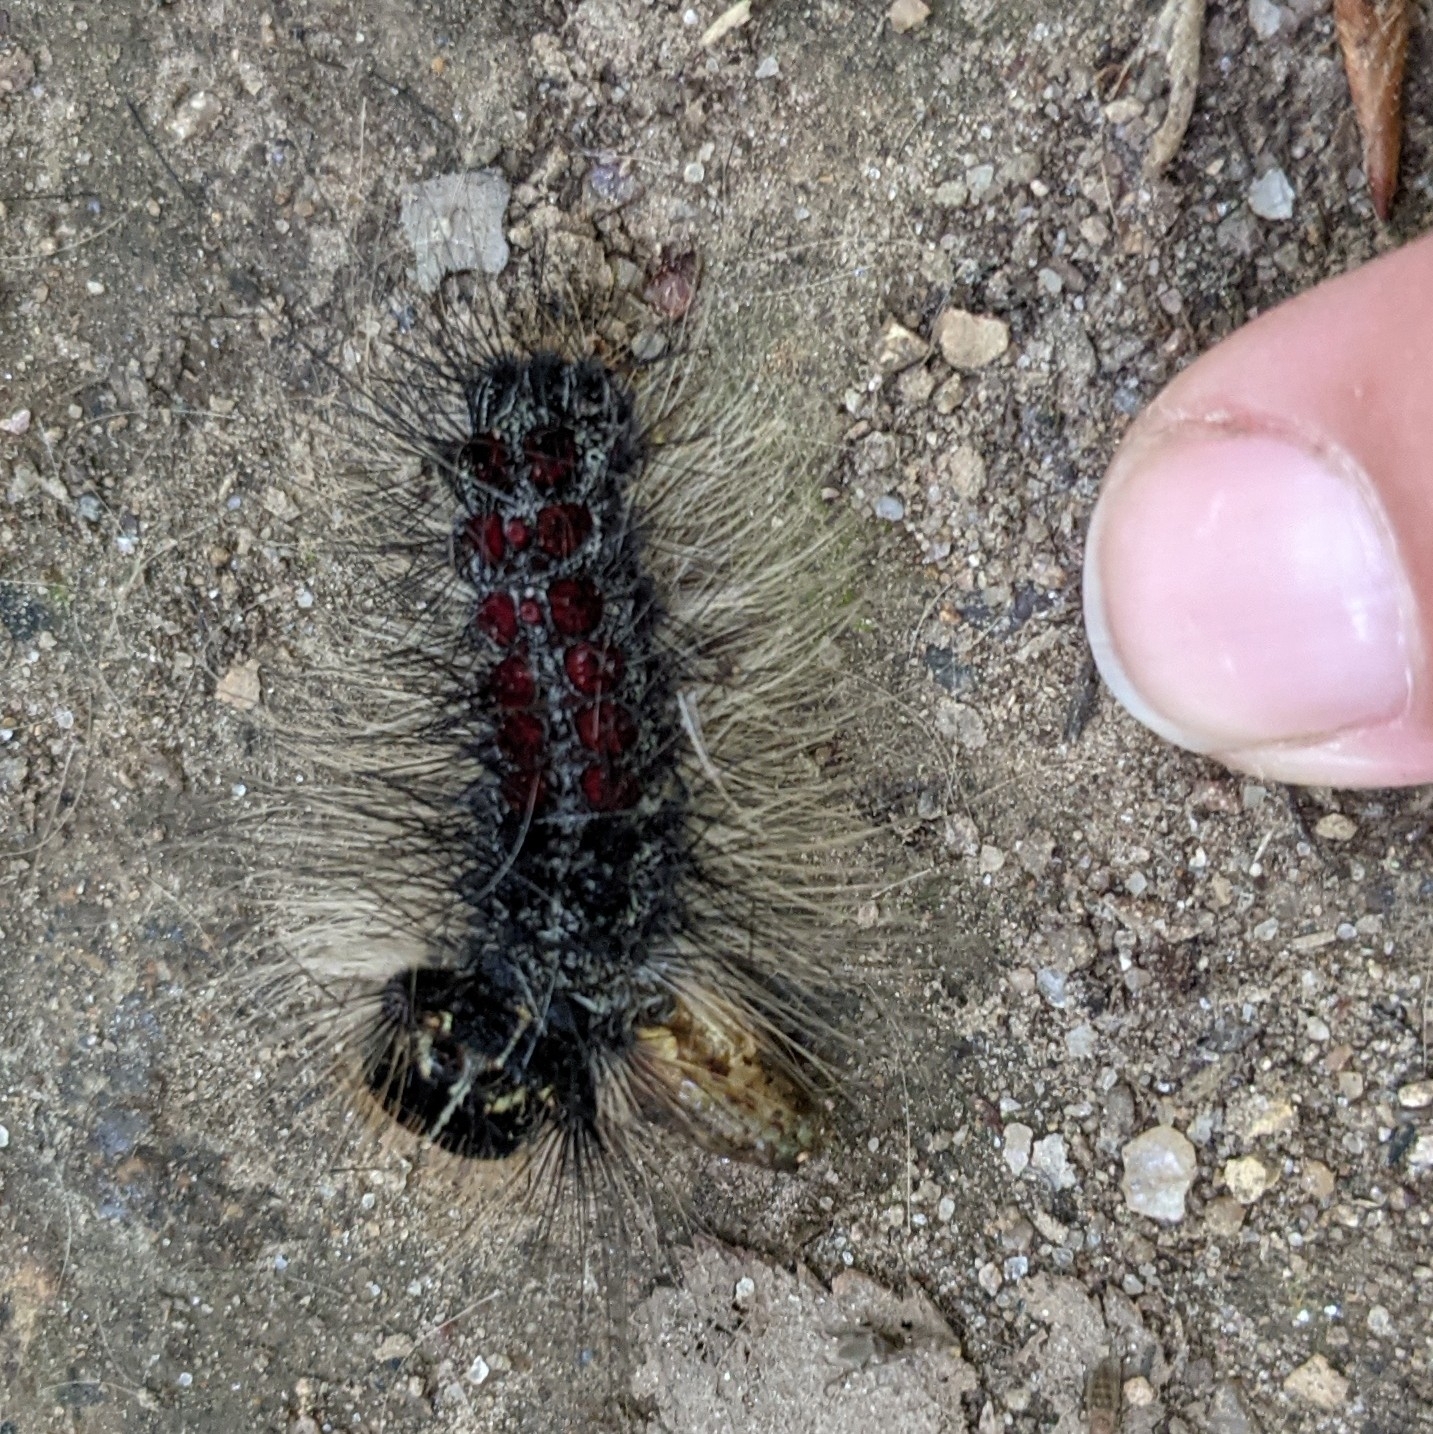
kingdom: Animalia
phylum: Arthropoda
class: Insecta
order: Lepidoptera
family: Erebidae
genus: Lymantria
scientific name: Lymantria dispar
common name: Gypsy moth
